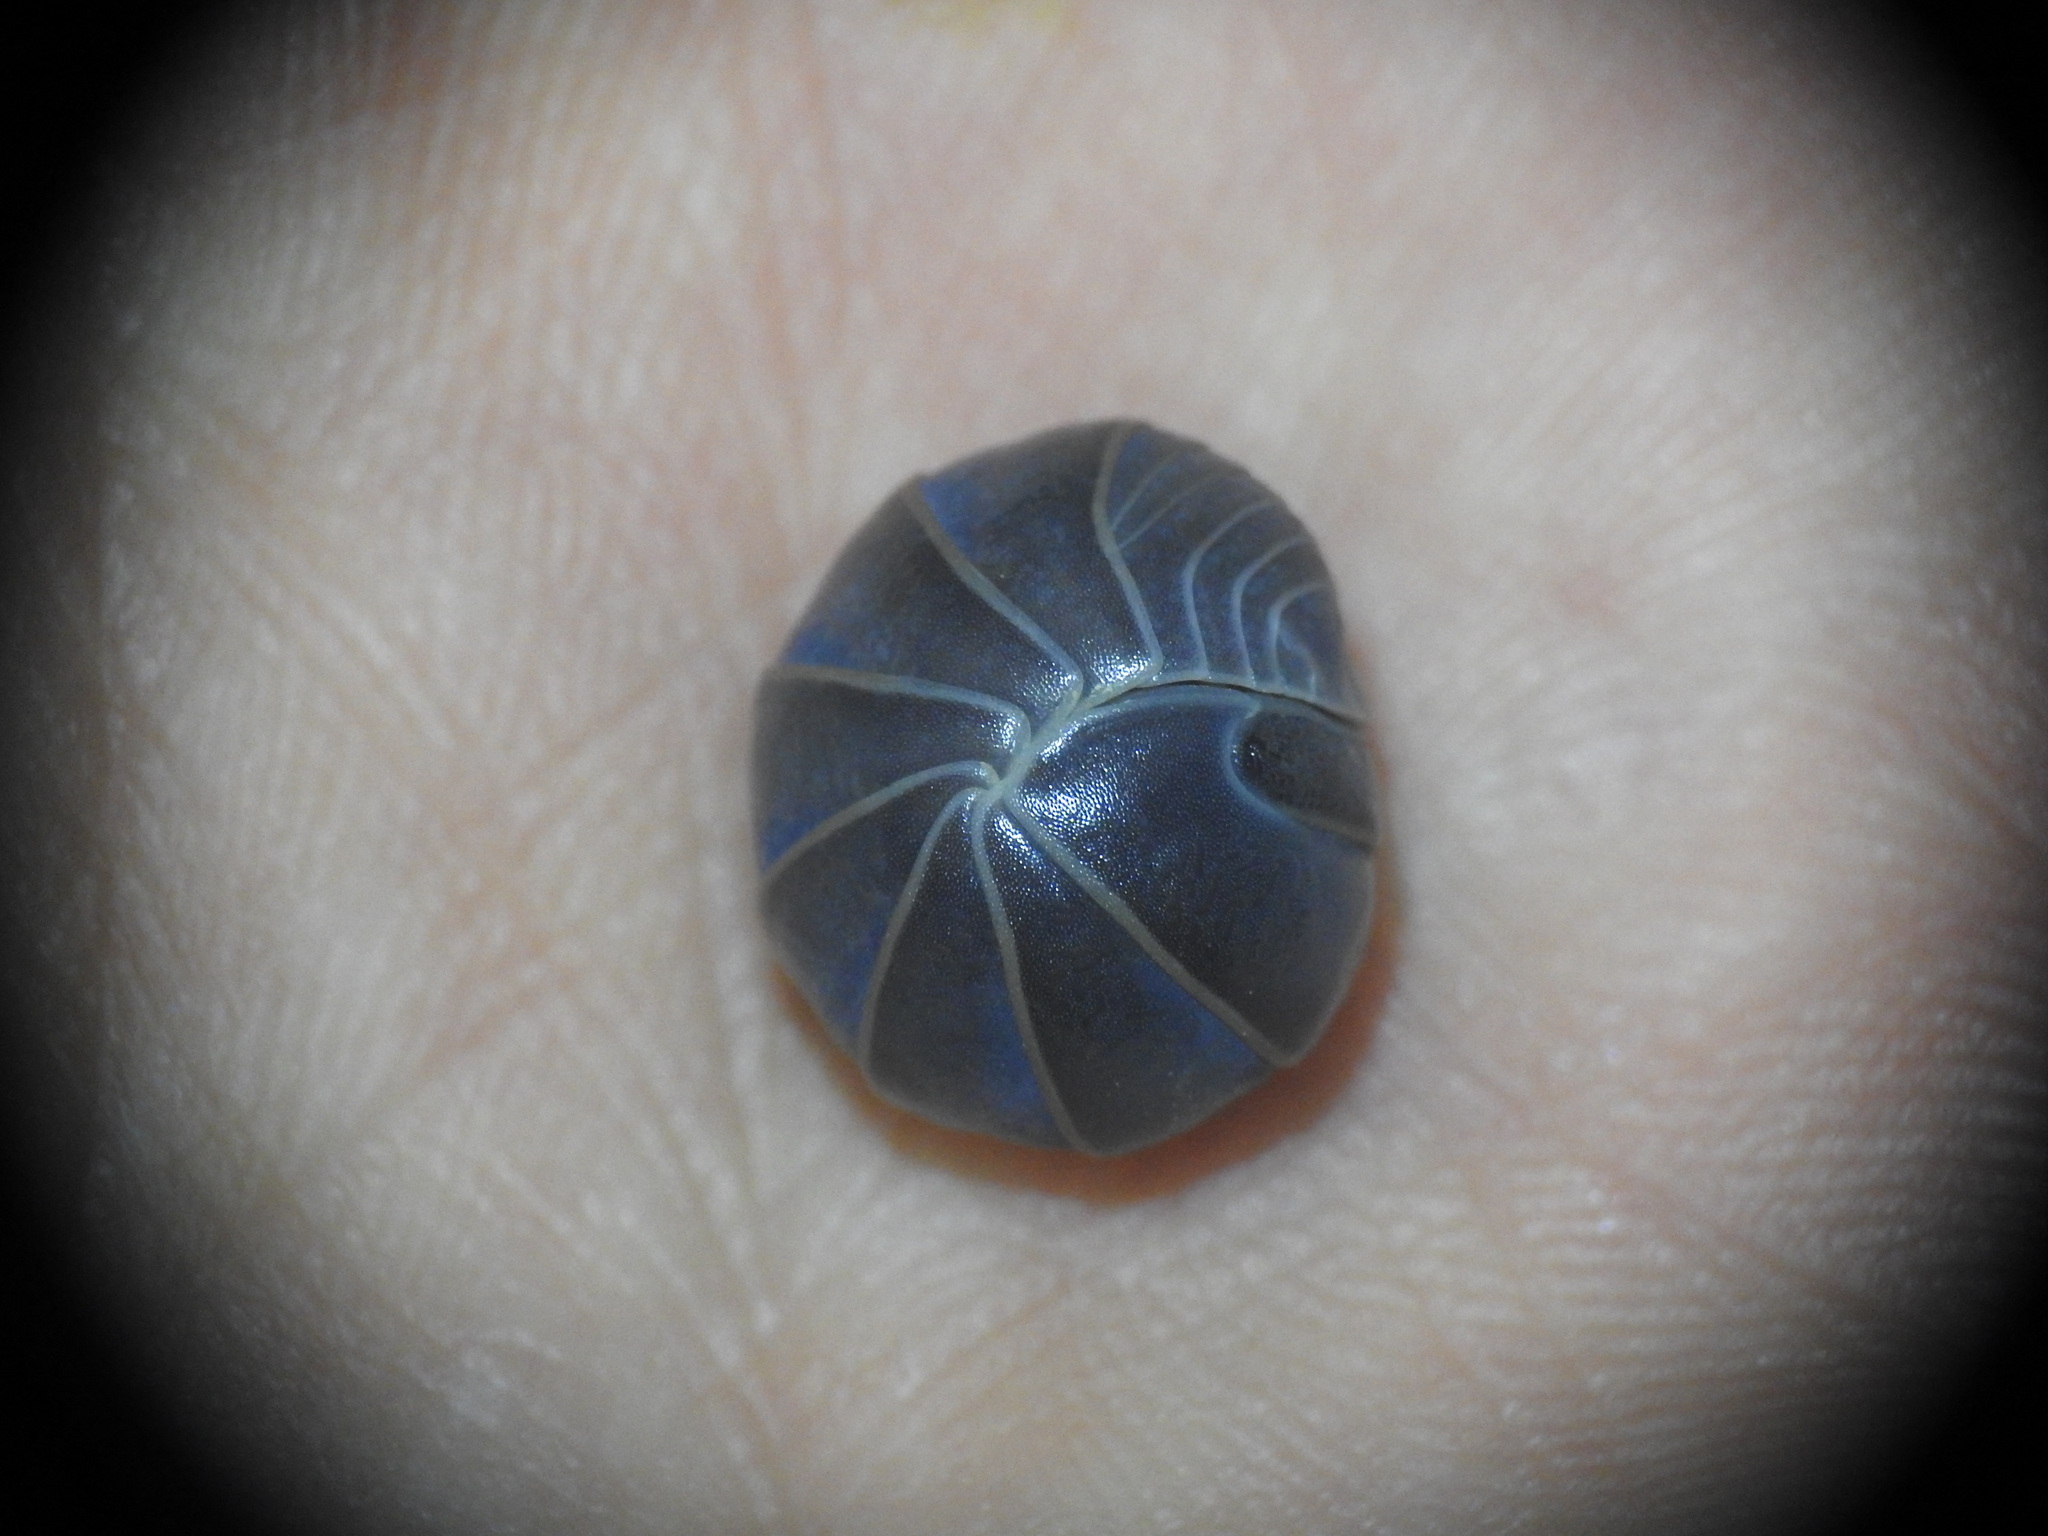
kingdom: Animalia
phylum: Arthropoda
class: Malacostraca
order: Isopoda
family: Armadillidae
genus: Armadillo
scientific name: Armadillo officinalis
